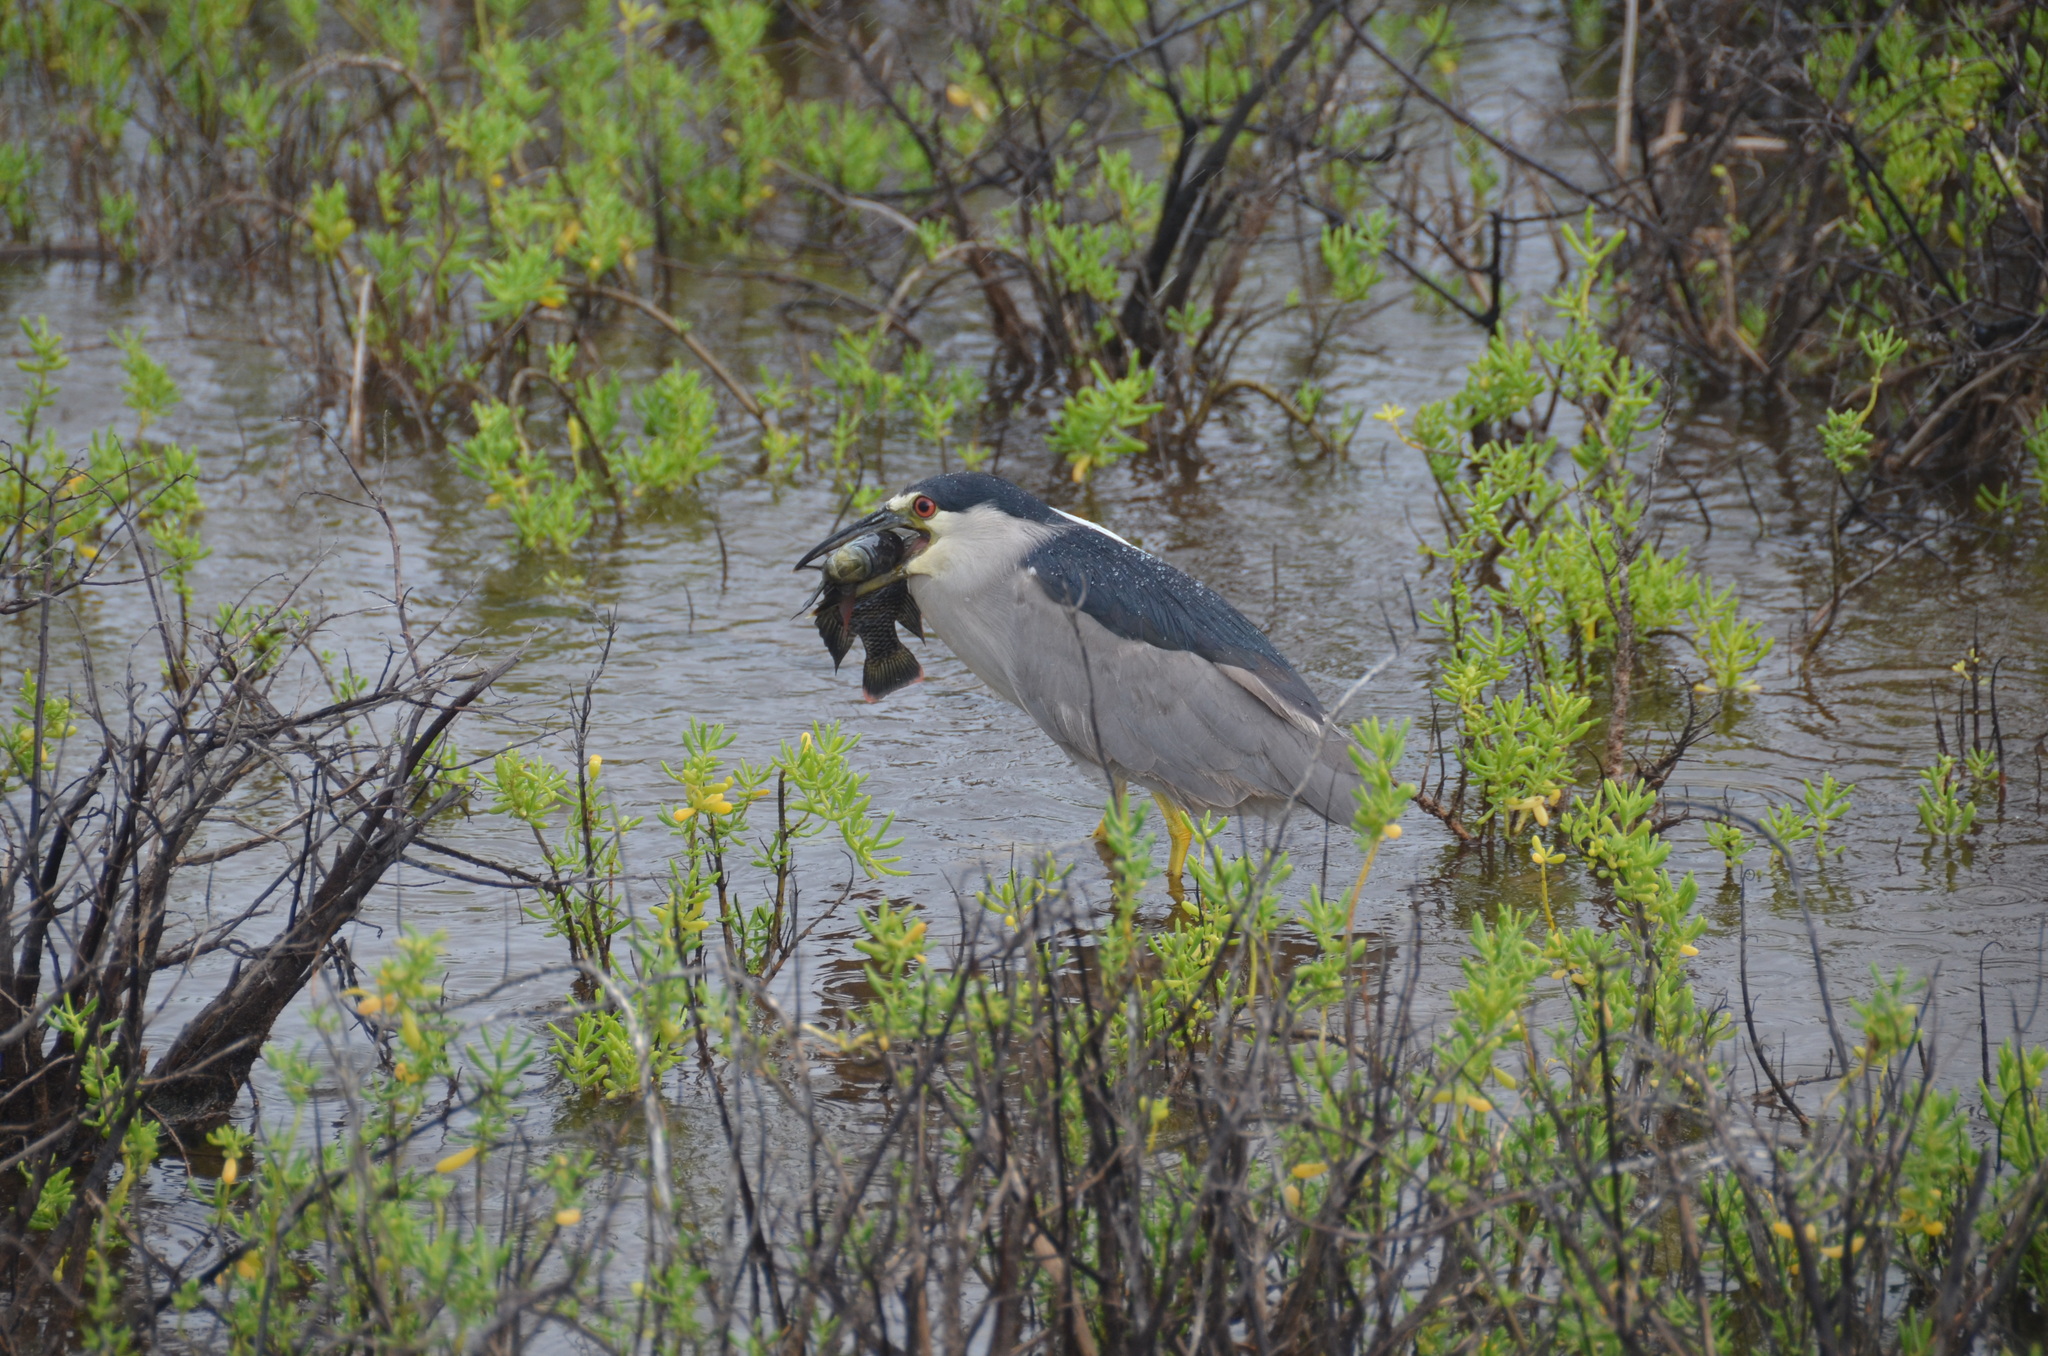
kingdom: Animalia
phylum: Chordata
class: Aves
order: Pelecaniformes
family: Ardeidae
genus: Nycticorax
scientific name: Nycticorax nycticorax
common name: Black-crowned night heron
